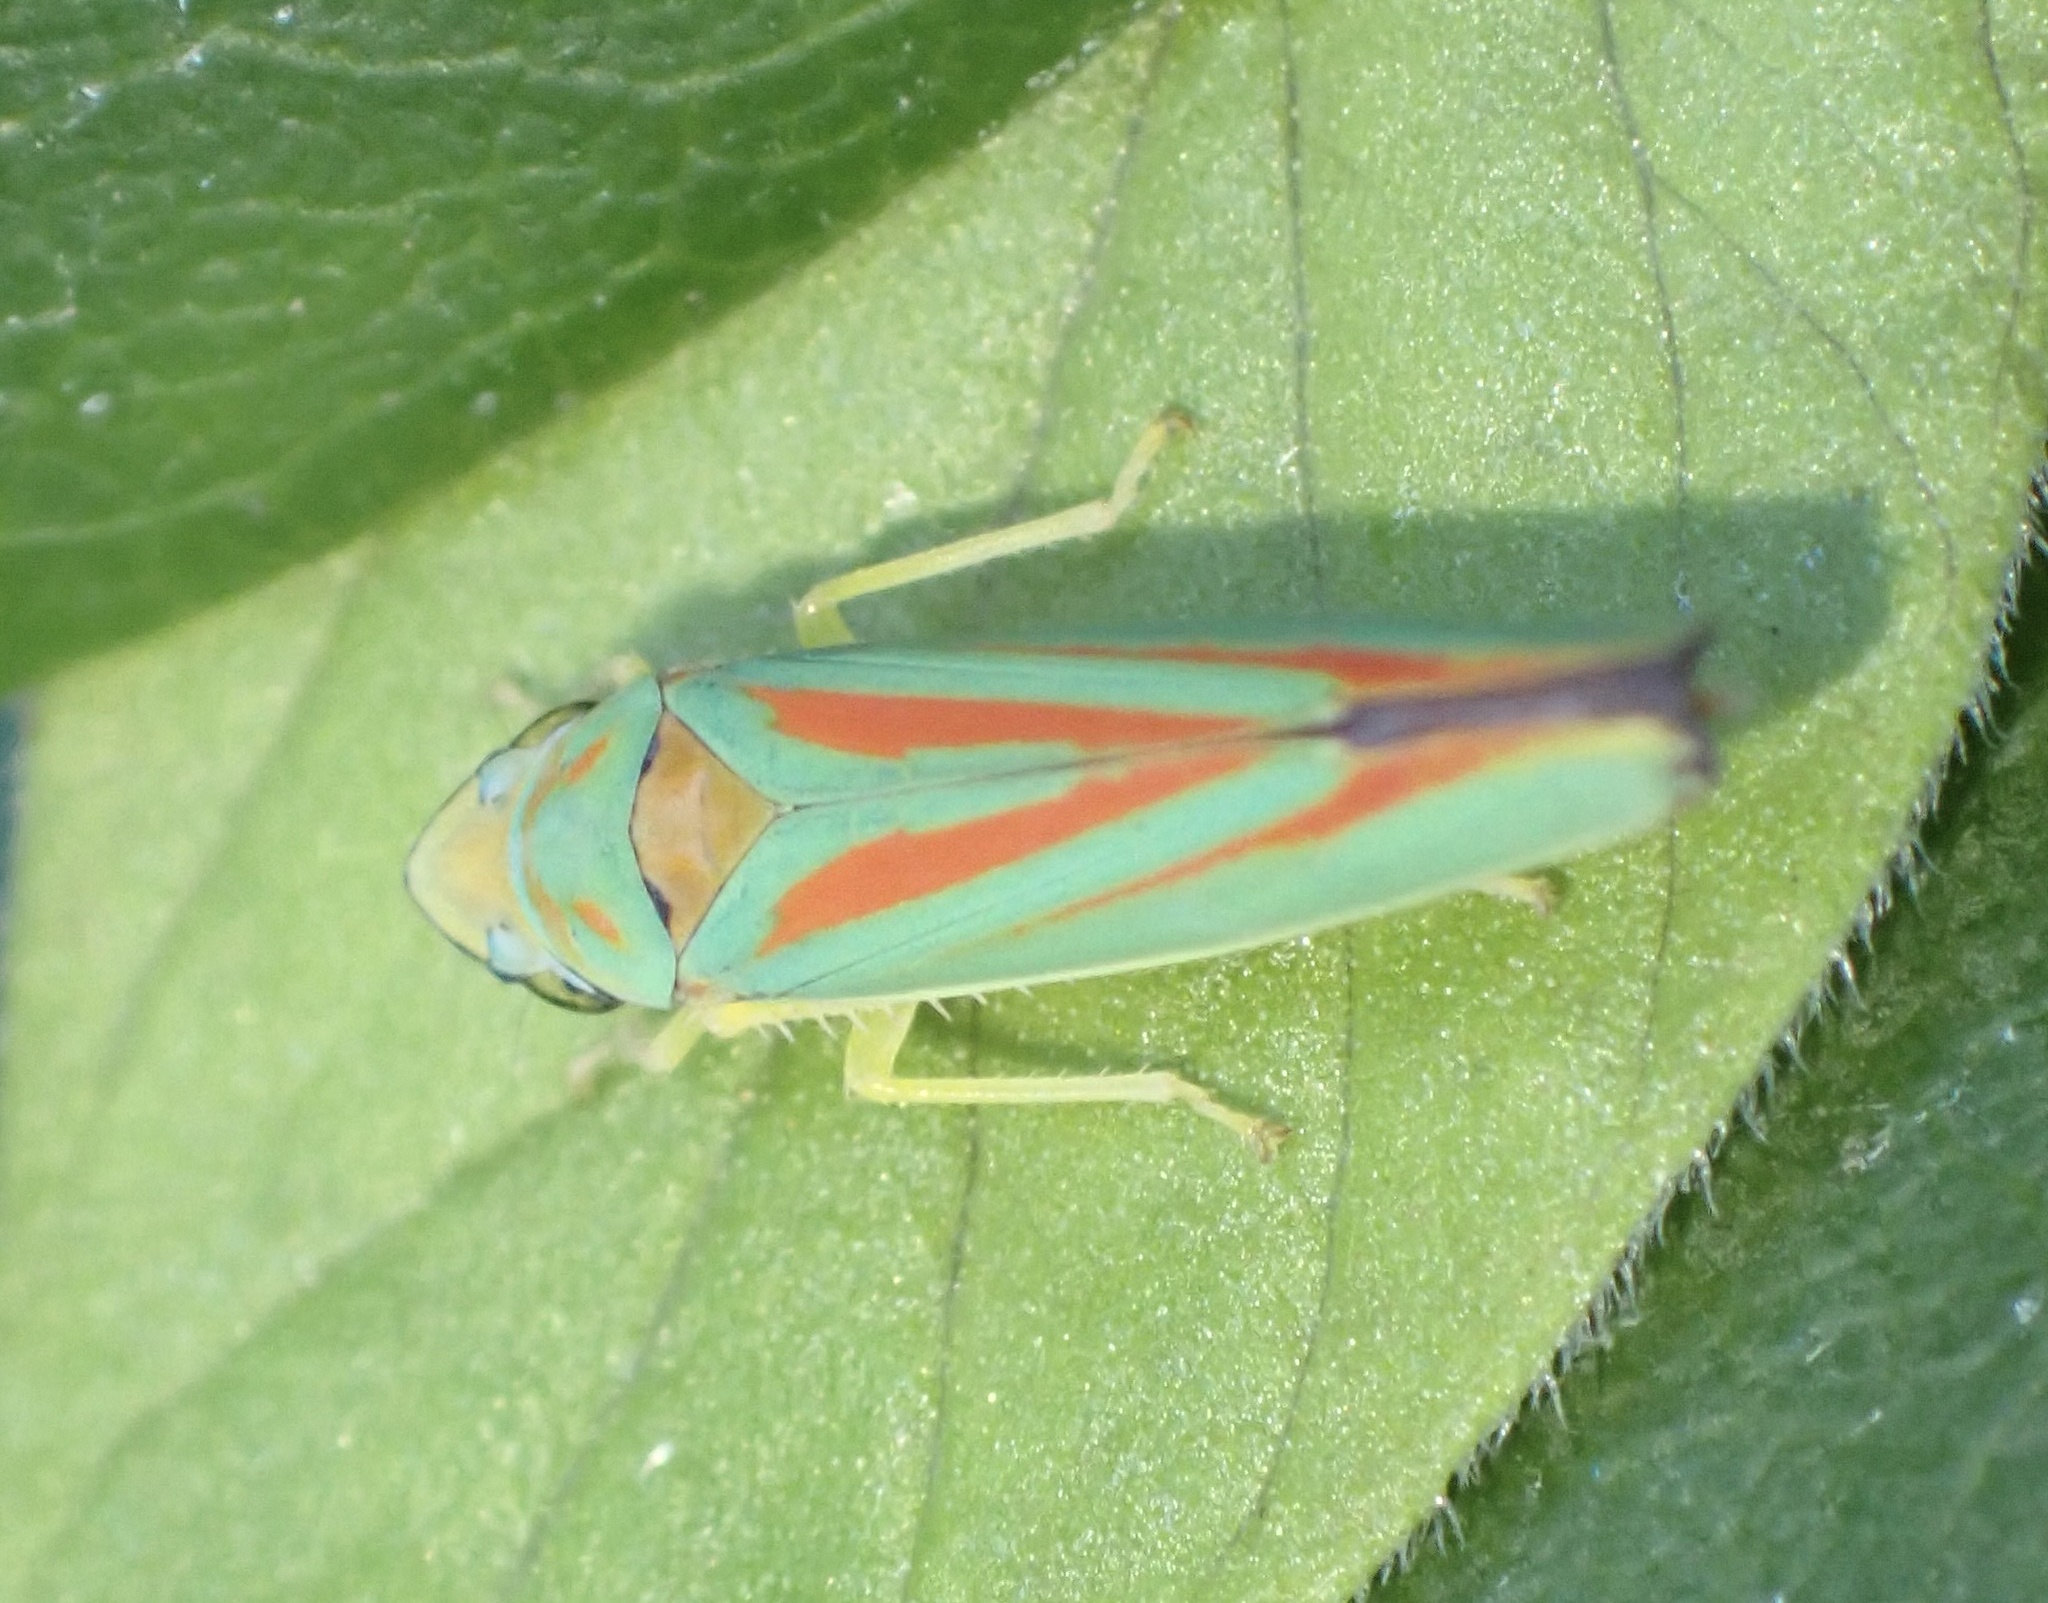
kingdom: Animalia
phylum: Arthropoda
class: Insecta
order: Hemiptera
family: Cicadellidae
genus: Graphocephala
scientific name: Graphocephala fennahi
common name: Rhododendron leafhopper
